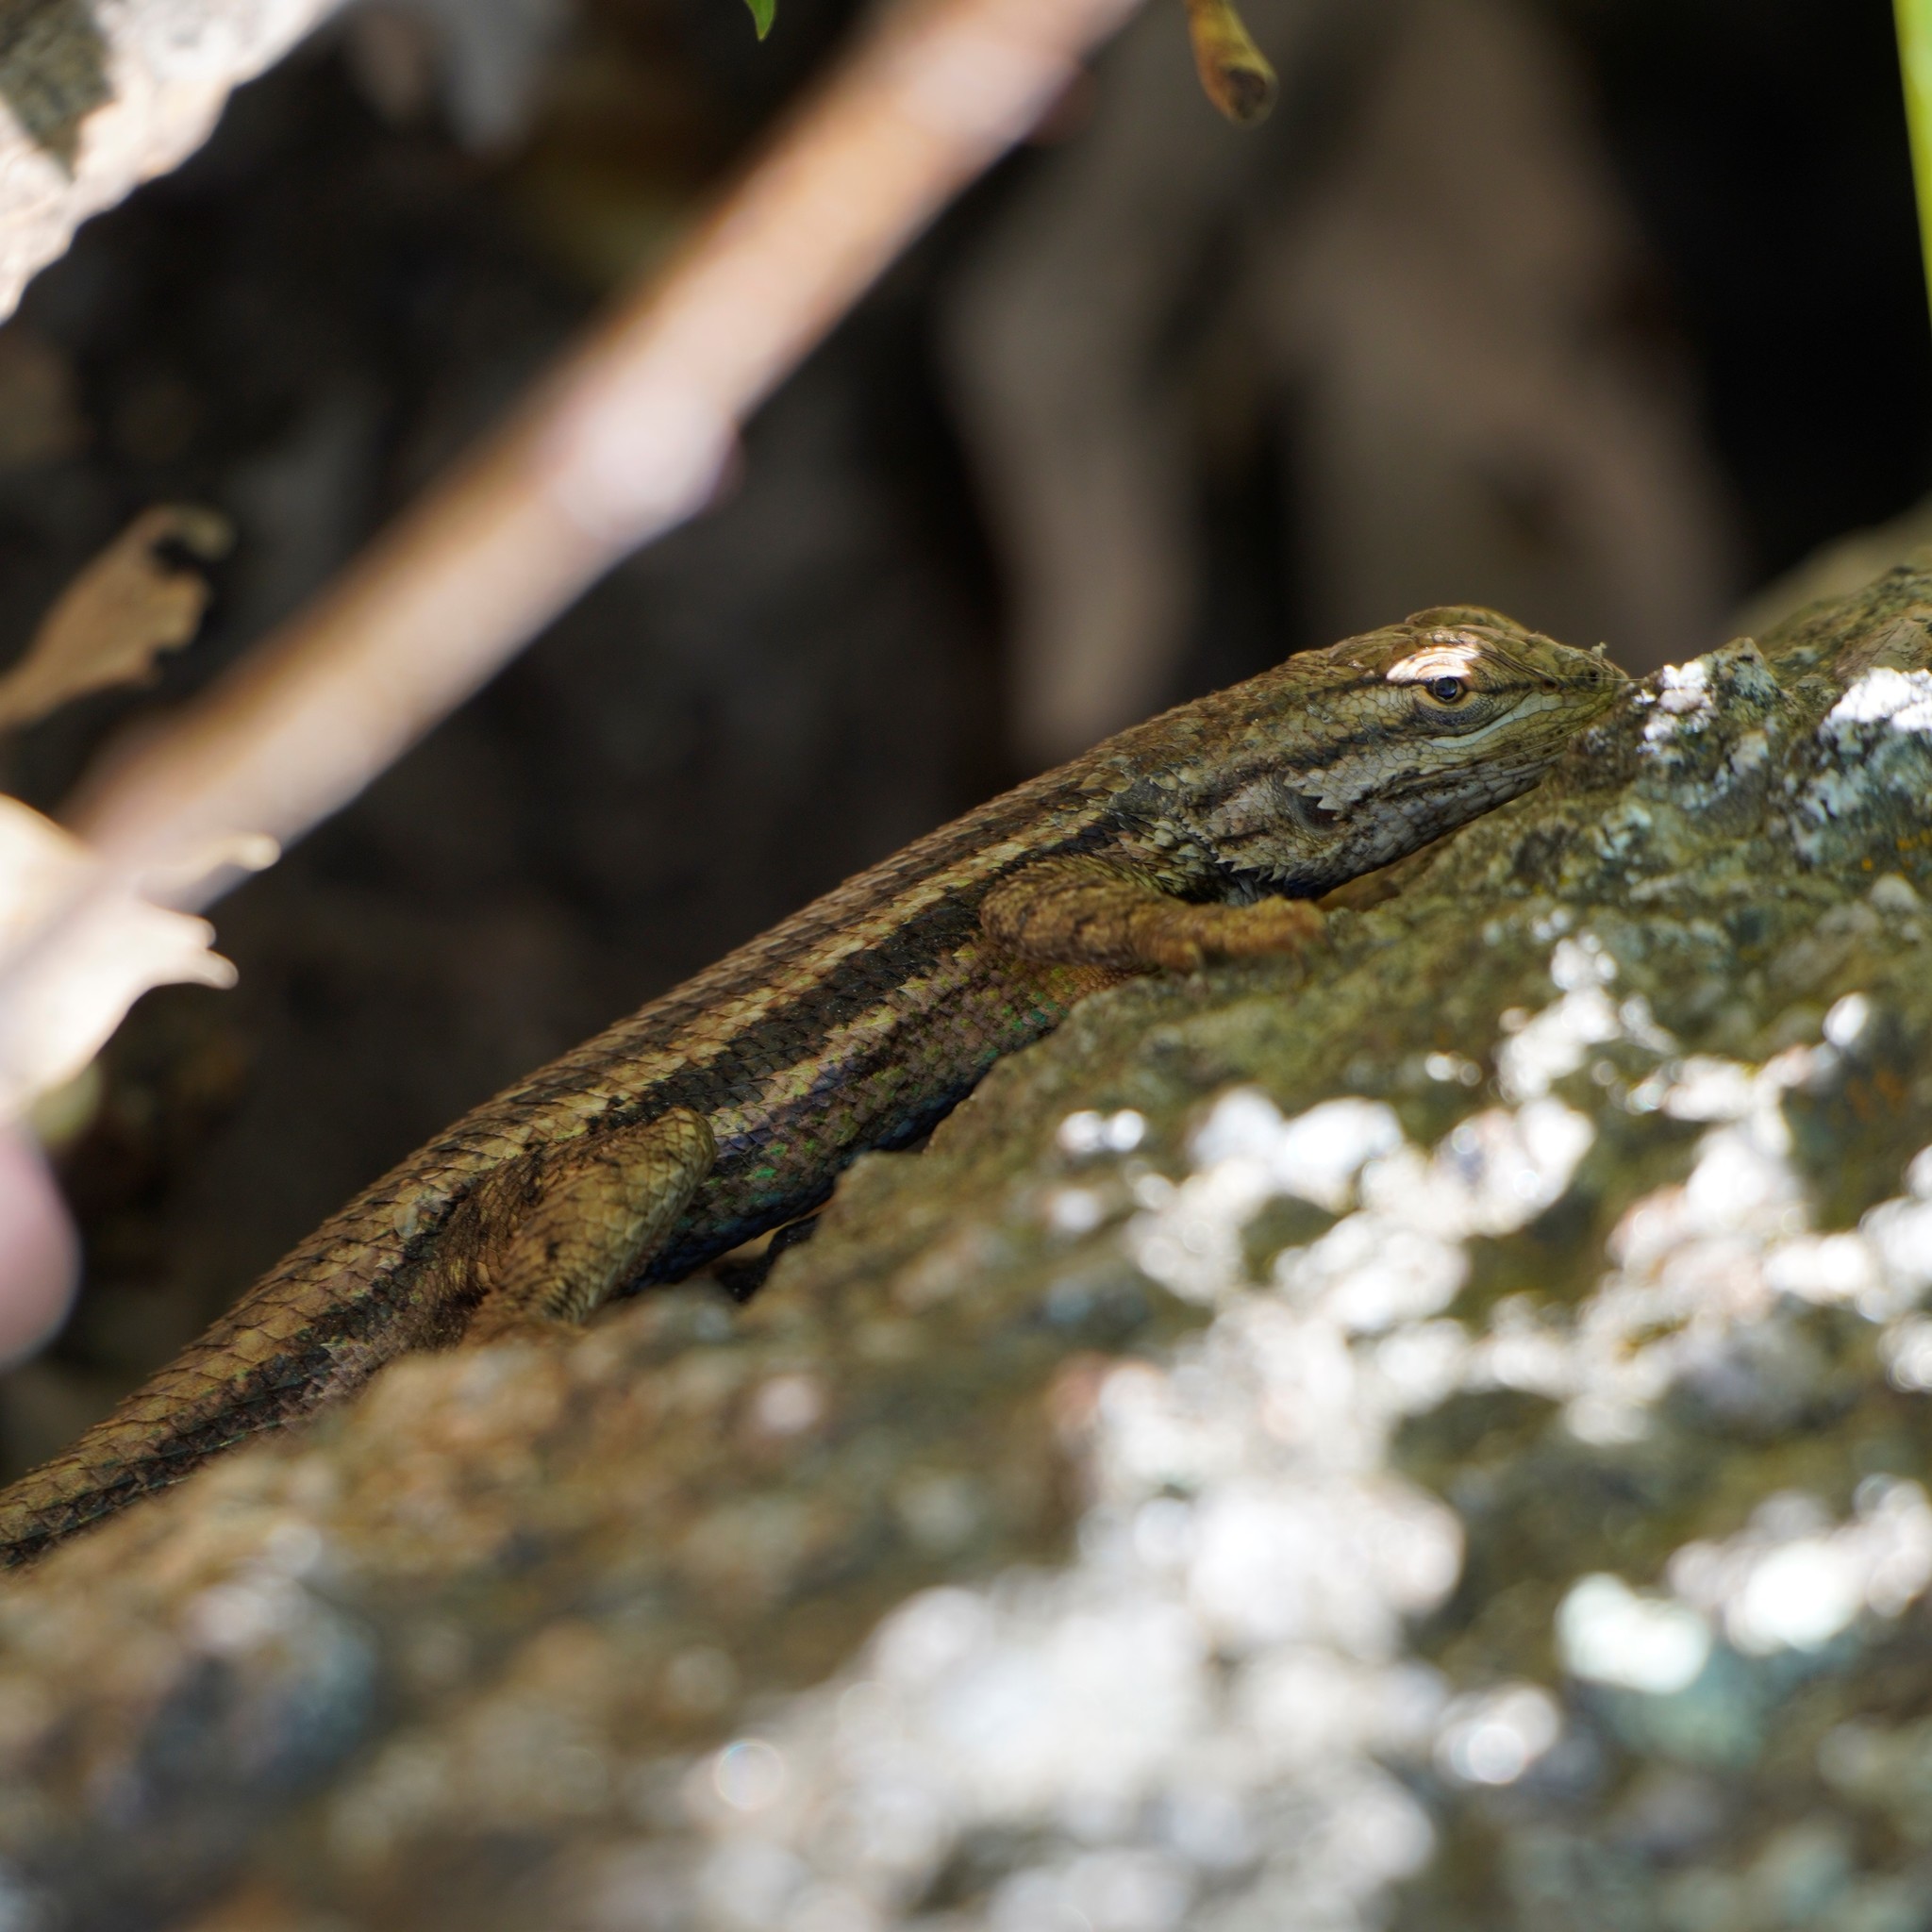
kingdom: Animalia
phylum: Chordata
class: Squamata
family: Phrynosomatidae
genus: Sceloporus
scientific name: Sceloporus tristichus
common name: Plateau fence lizard
